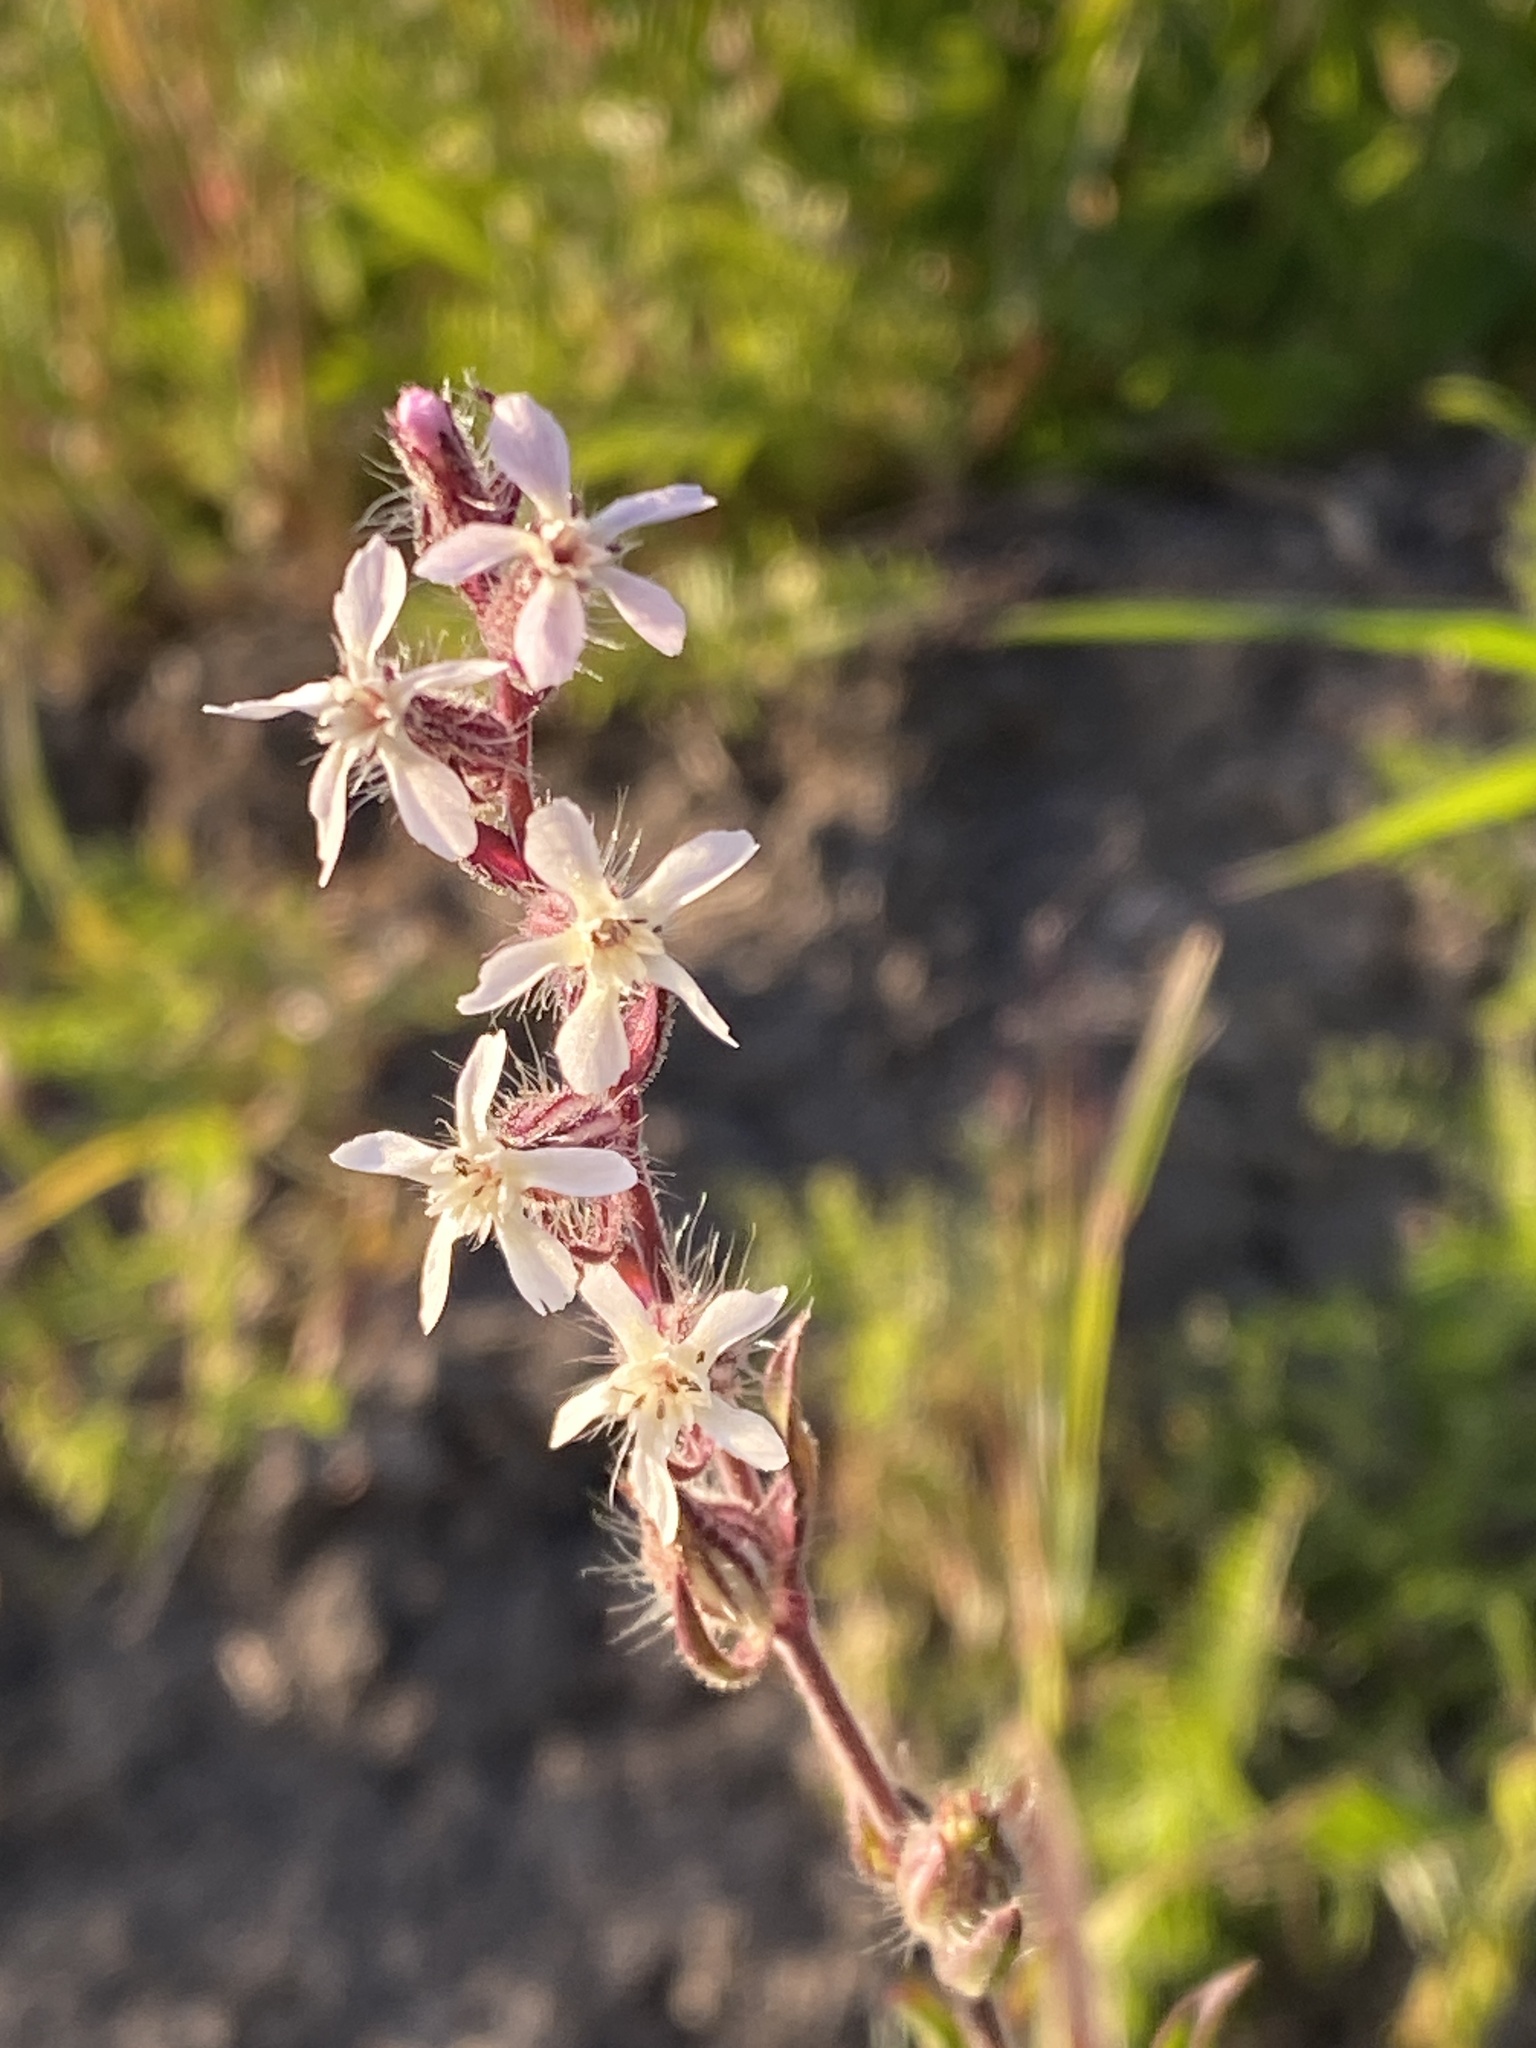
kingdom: Plantae
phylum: Tracheophyta
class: Magnoliopsida
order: Caryophyllales
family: Caryophyllaceae
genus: Silene
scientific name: Silene gallica
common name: Small-flowered catchfly
